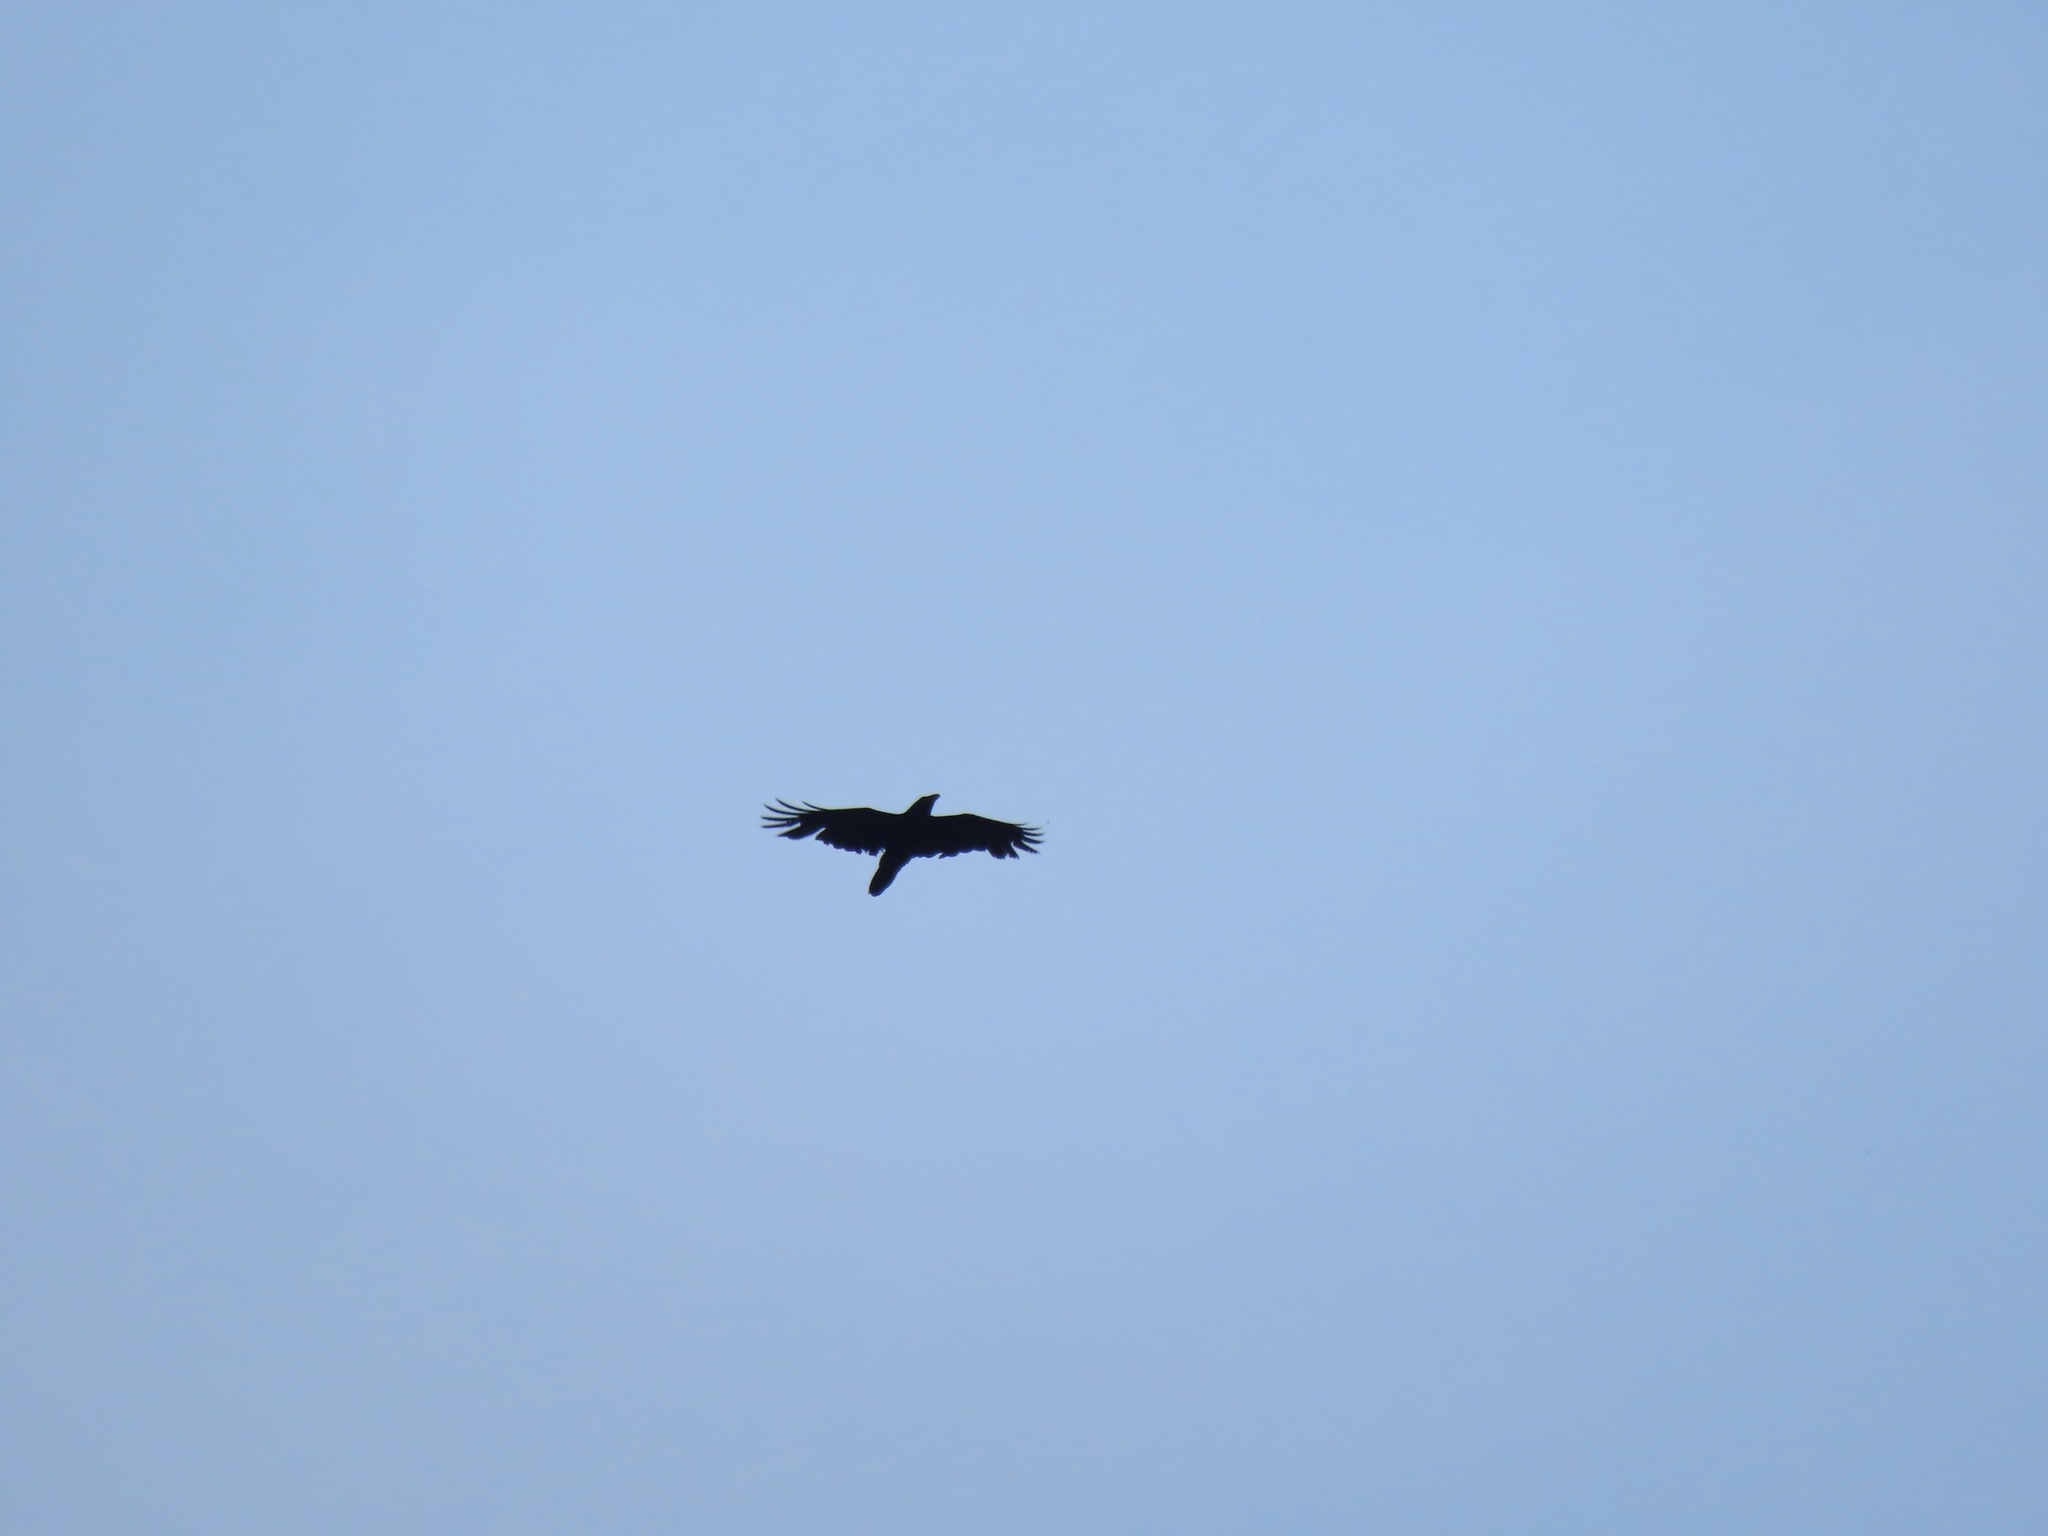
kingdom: Animalia
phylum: Chordata
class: Aves
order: Passeriformes
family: Corvidae
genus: Corvus
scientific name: Corvus corax
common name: Common raven
